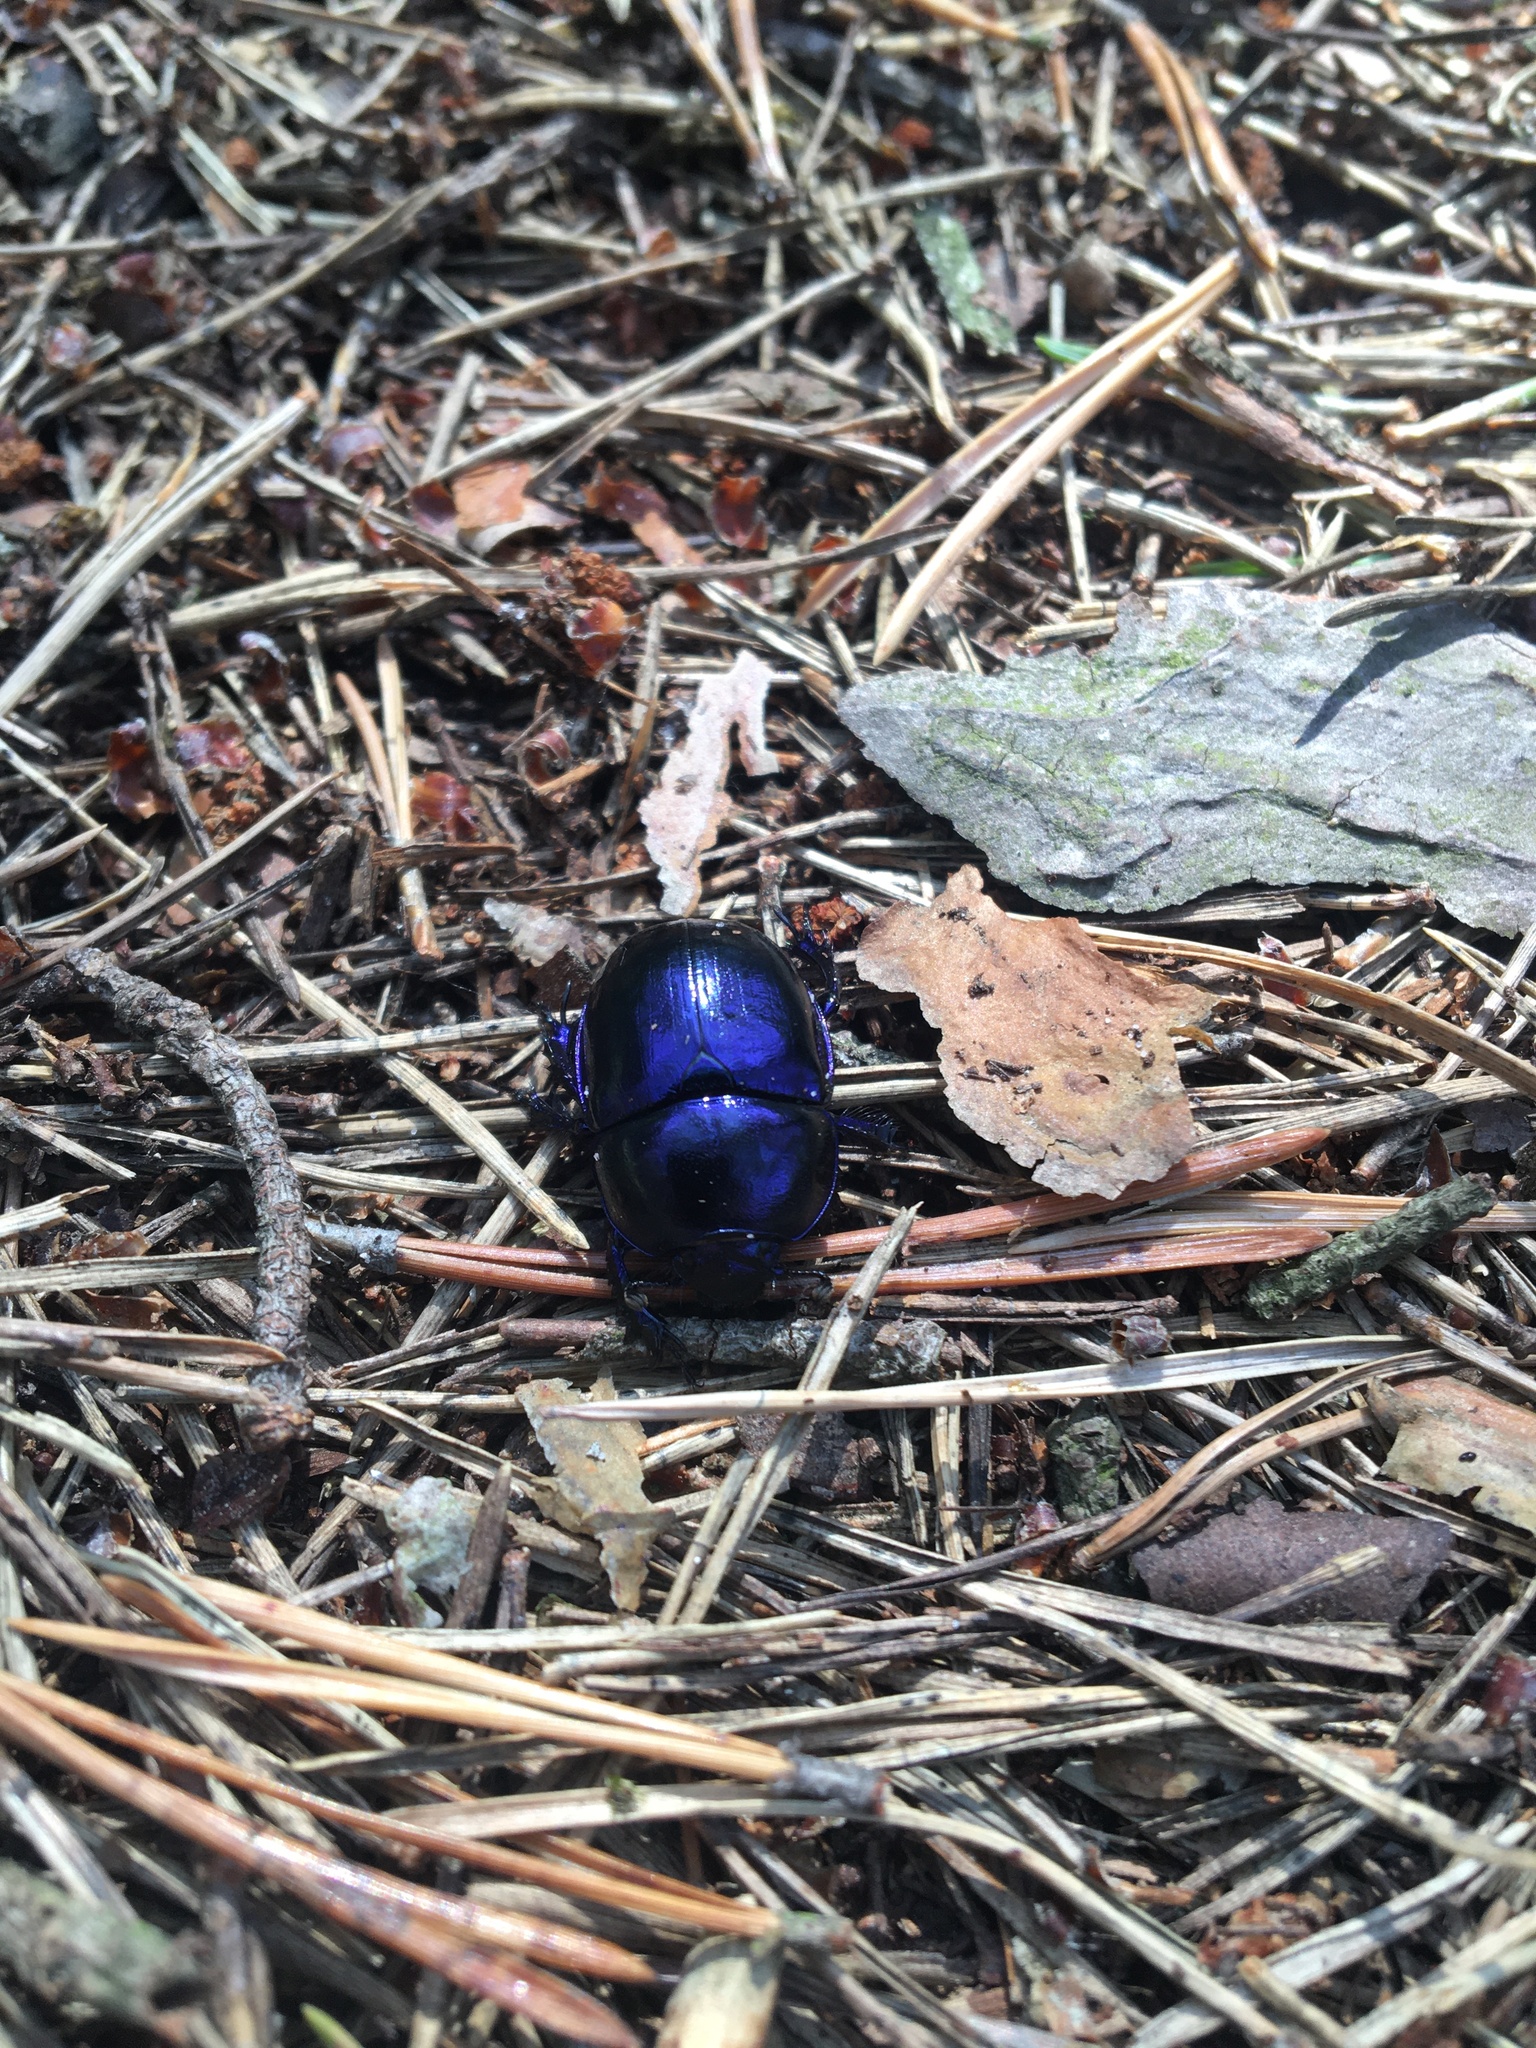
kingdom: Animalia
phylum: Arthropoda
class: Insecta
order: Coleoptera
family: Geotrupidae
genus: Trypocopris
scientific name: Trypocopris vernalis
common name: Spring dumbledor
